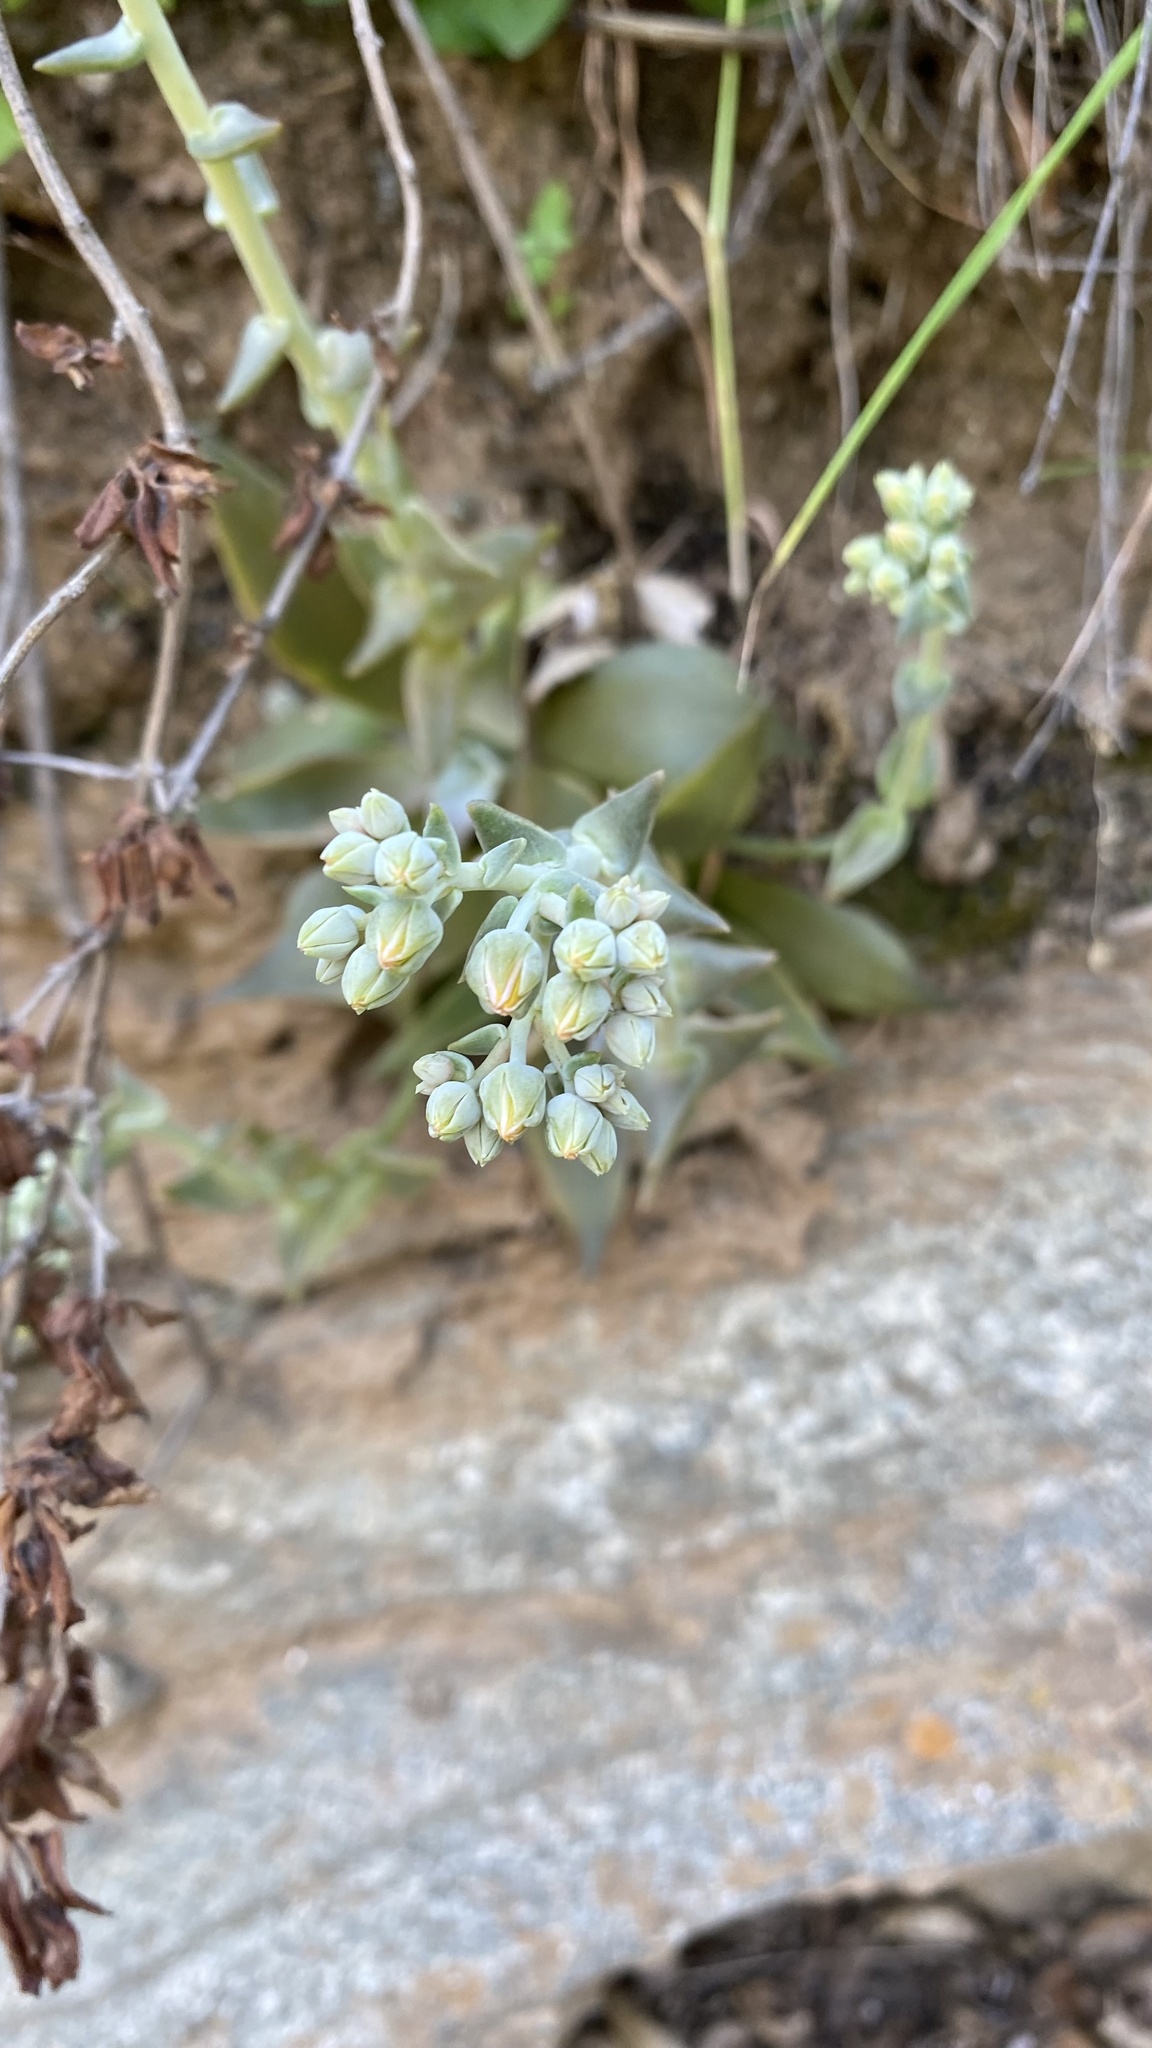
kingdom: Plantae
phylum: Tracheophyta
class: Magnoliopsida
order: Saxifragales
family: Crassulaceae
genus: Dudleya
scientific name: Dudleya cymosa
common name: Canyon dudleya
